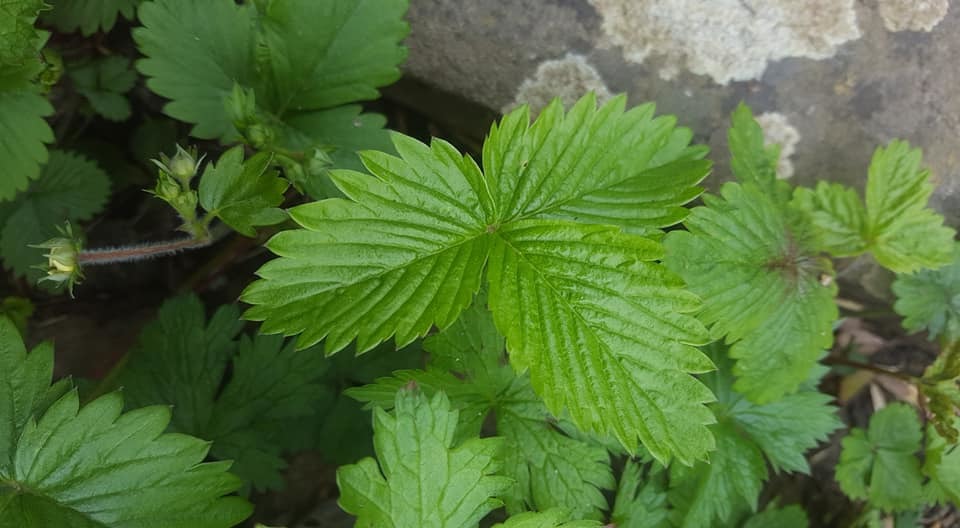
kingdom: Plantae
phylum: Tracheophyta
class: Magnoliopsida
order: Rosales
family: Rosaceae
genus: Fragaria
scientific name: Fragaria vesca
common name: Wild strawberry
